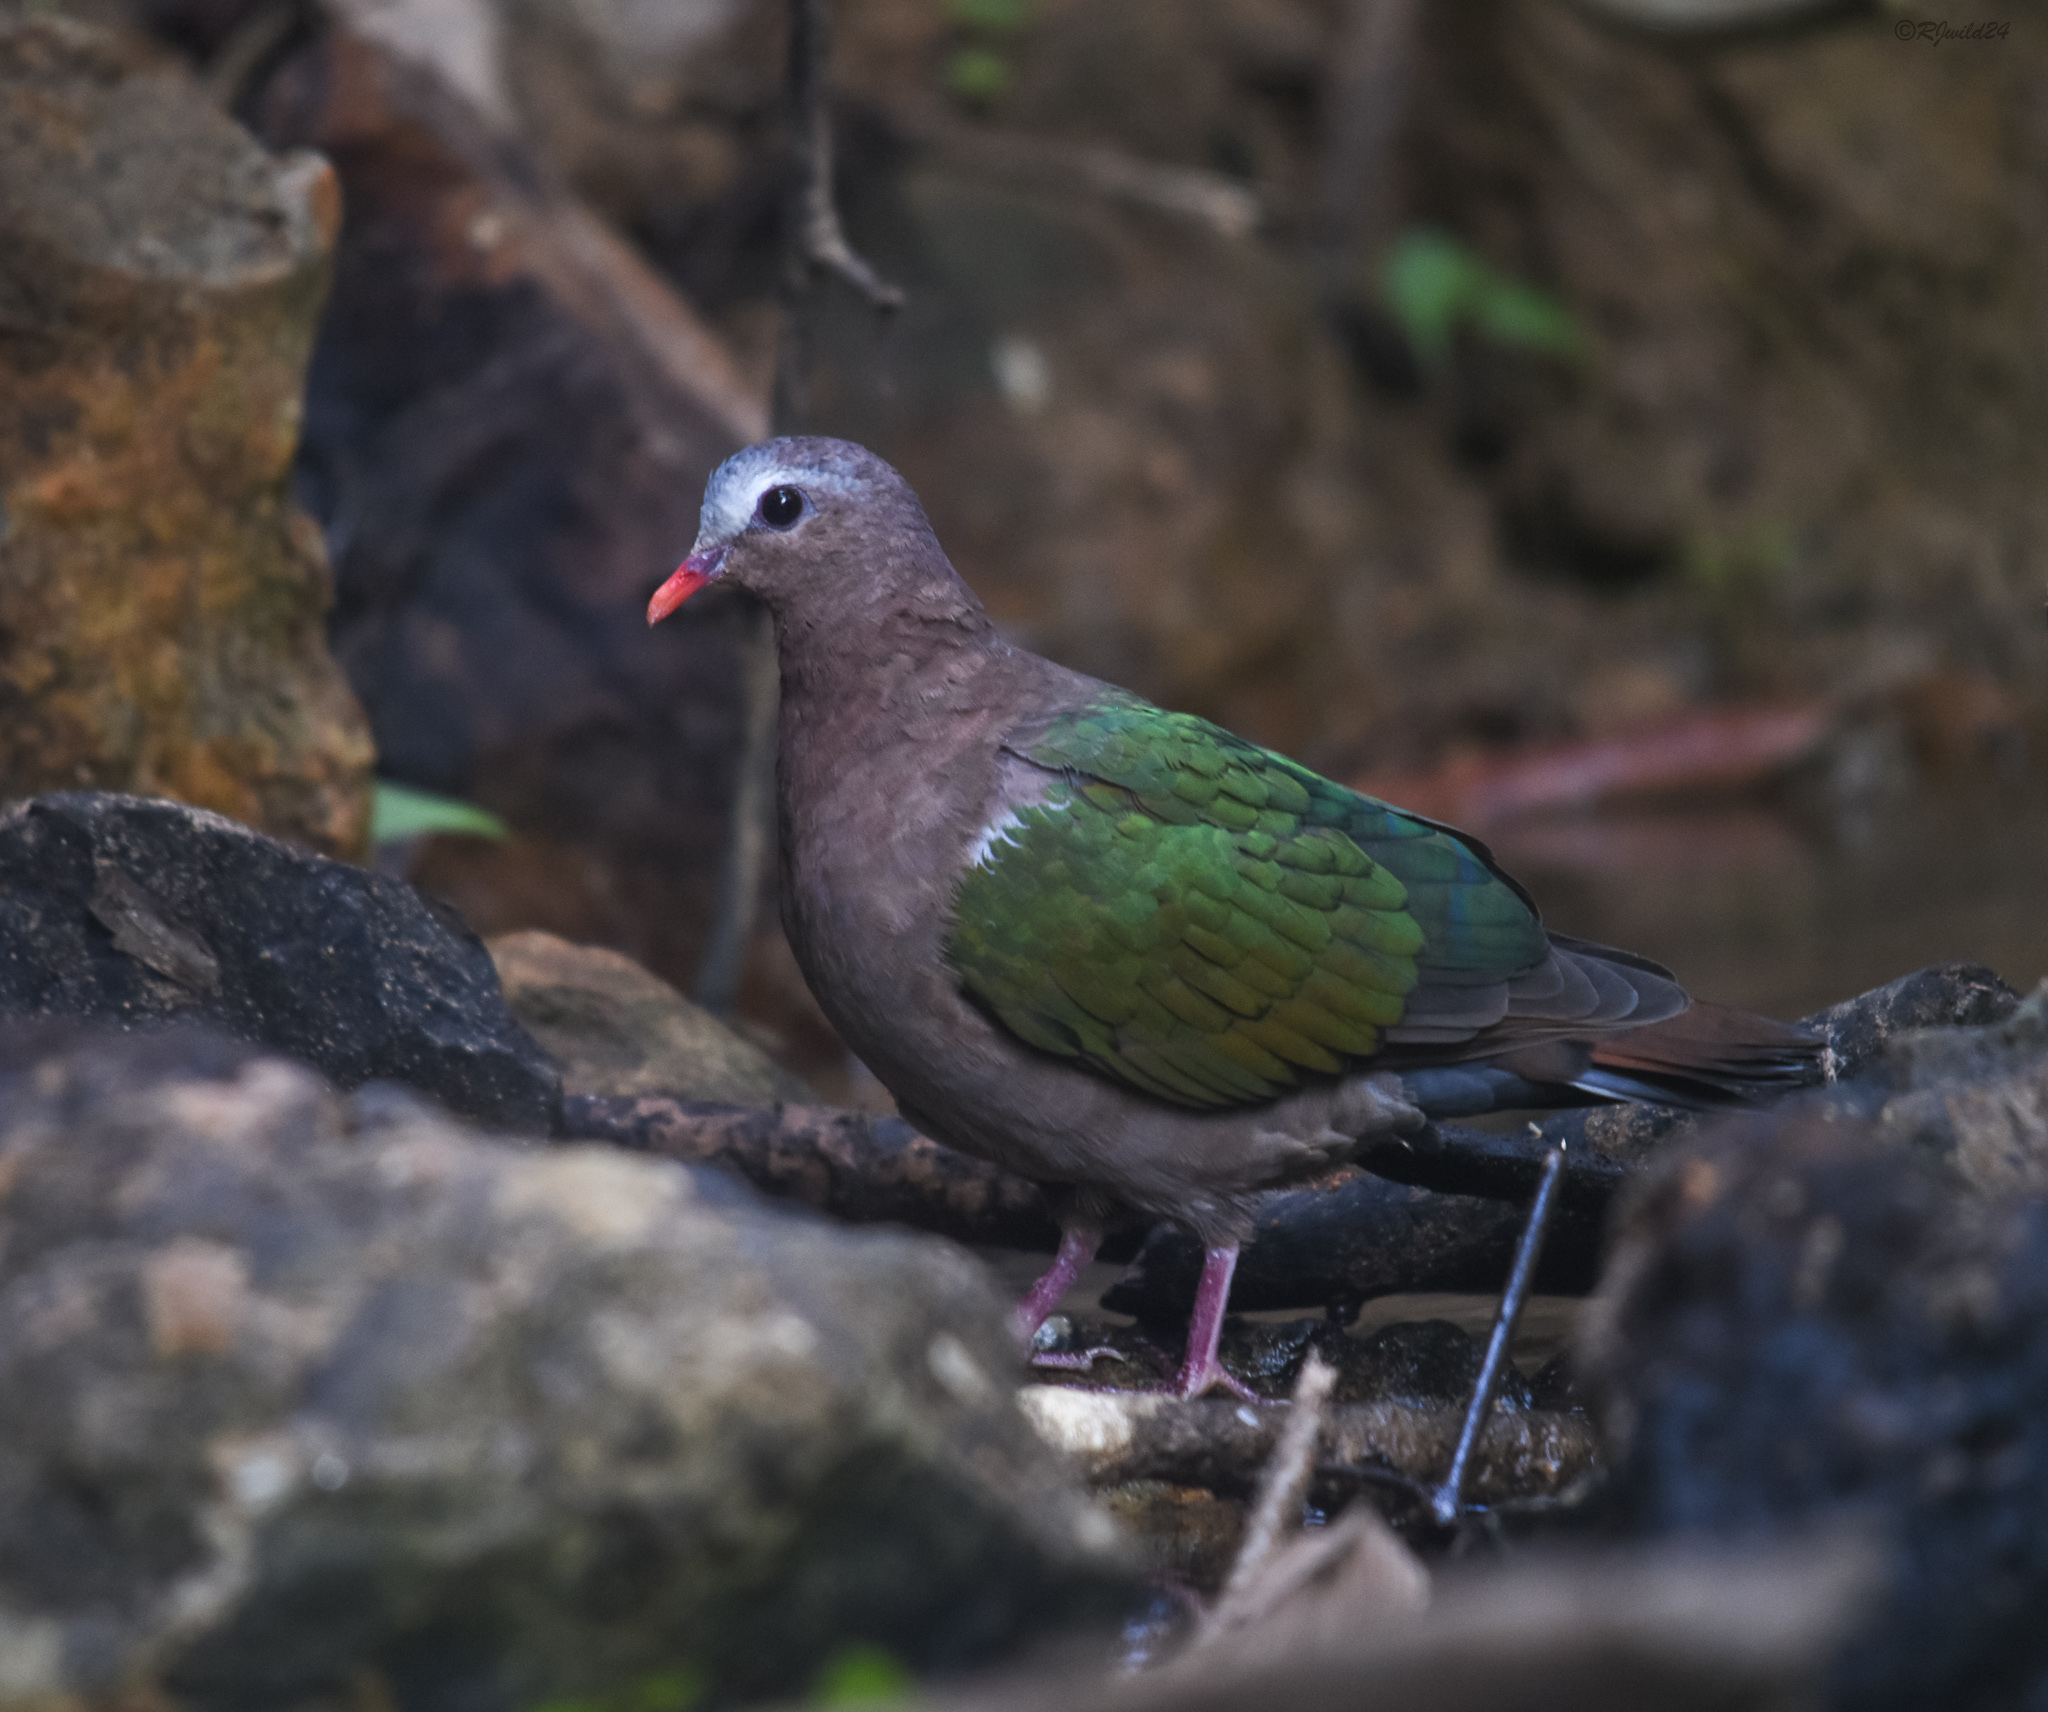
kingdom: Animalia
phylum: Chordata
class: Aves
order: Columbiformes
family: Columbidae
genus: Chalcophaps
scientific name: Chalcophaps indica
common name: Common emerald dove
